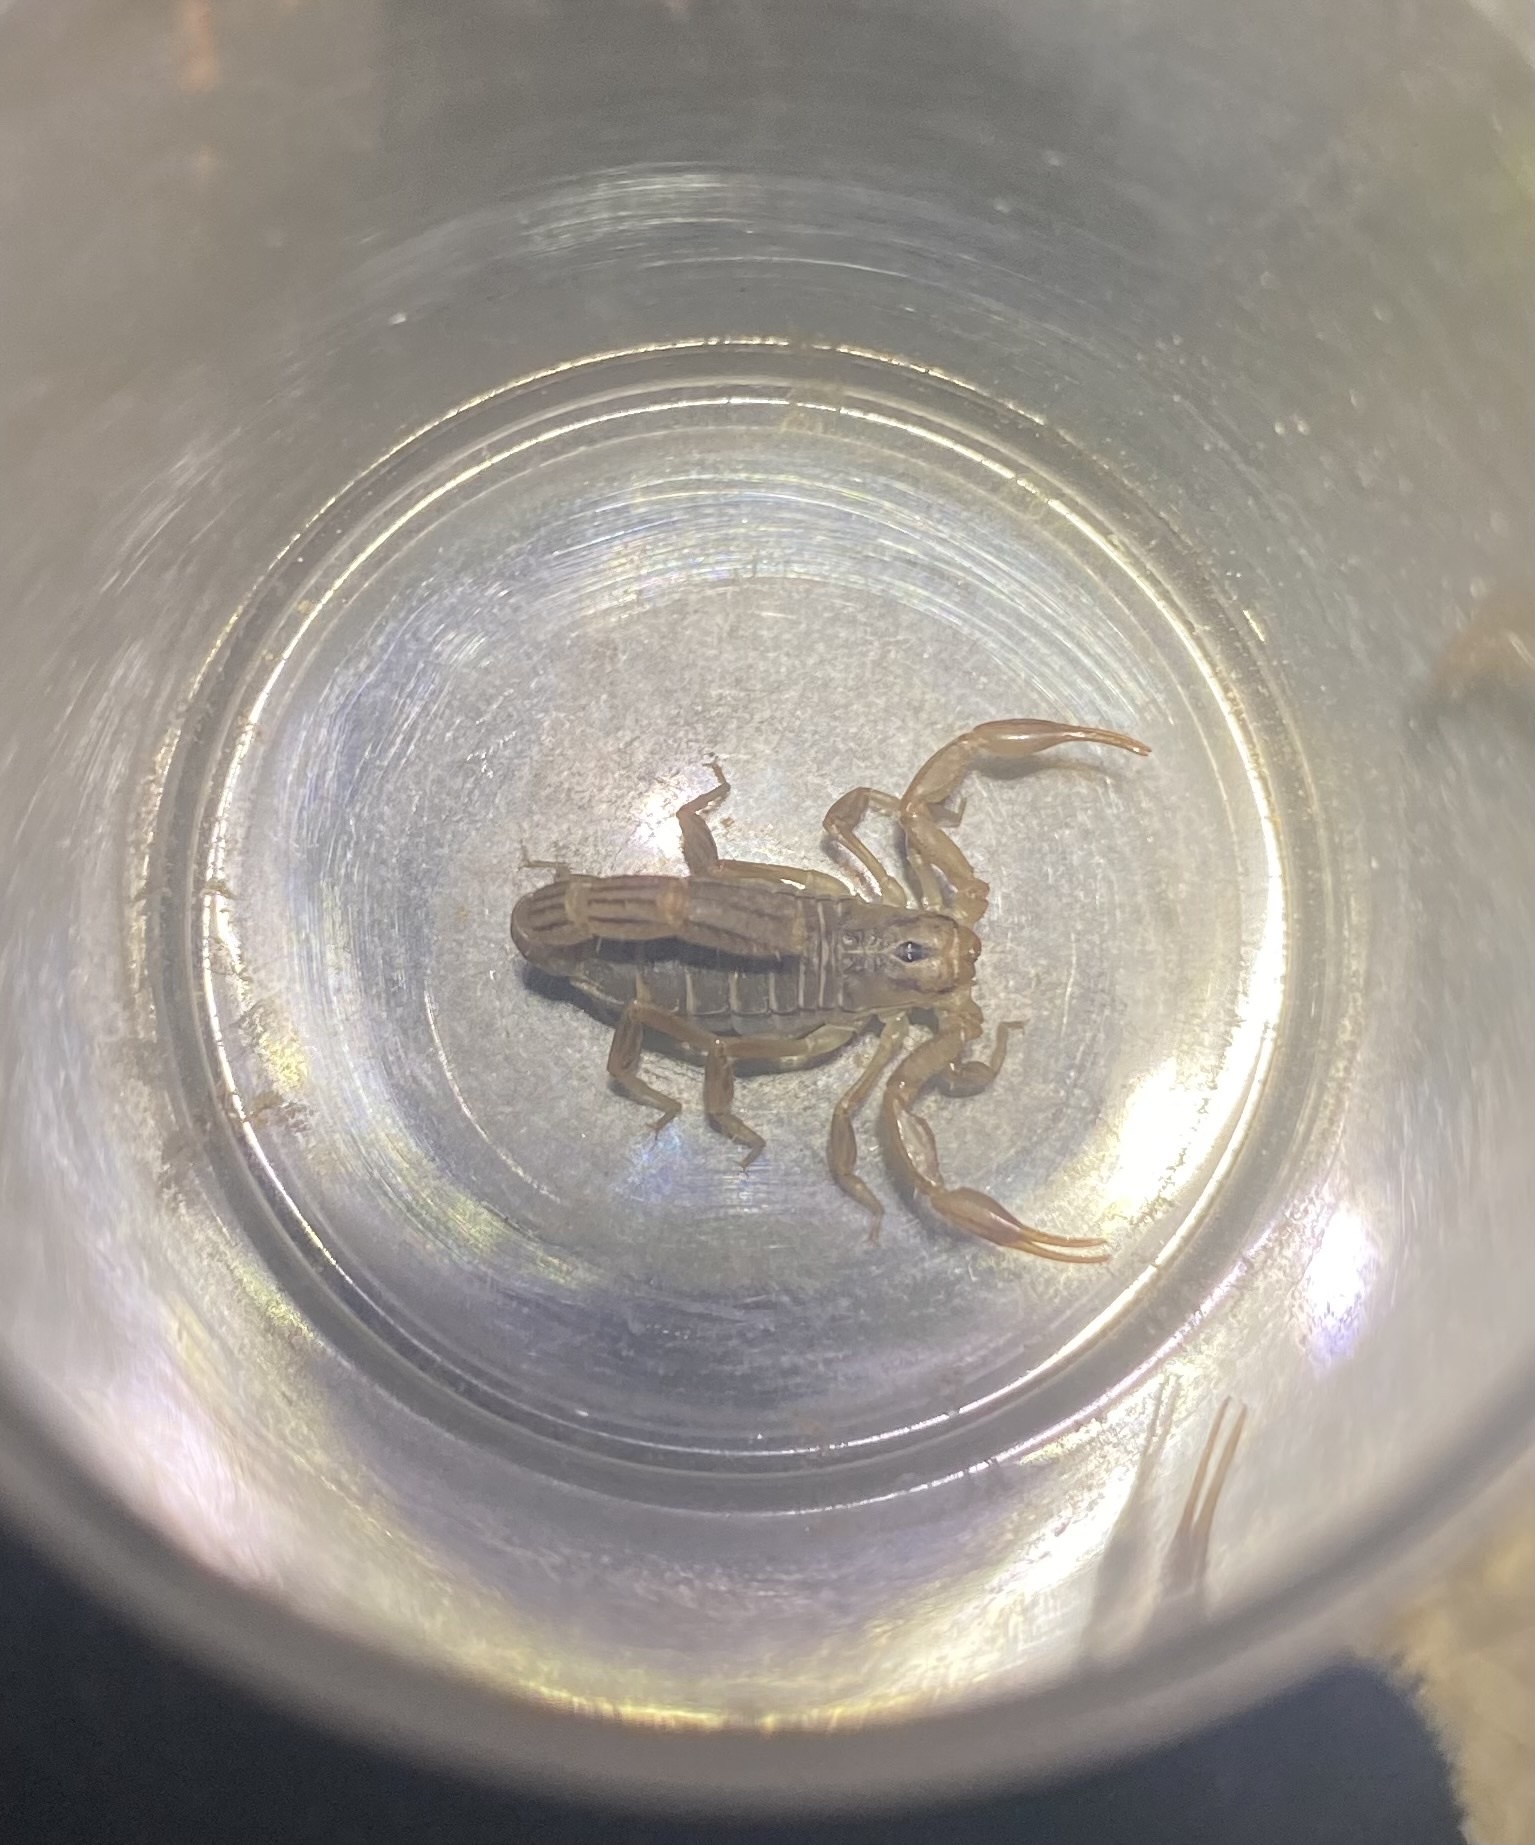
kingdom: Animalia
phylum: Arthropoda
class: Arachnida
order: Scorpiones
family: Vaejovidae
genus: Paravaejovis
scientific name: Paravaejovis spinigerus
